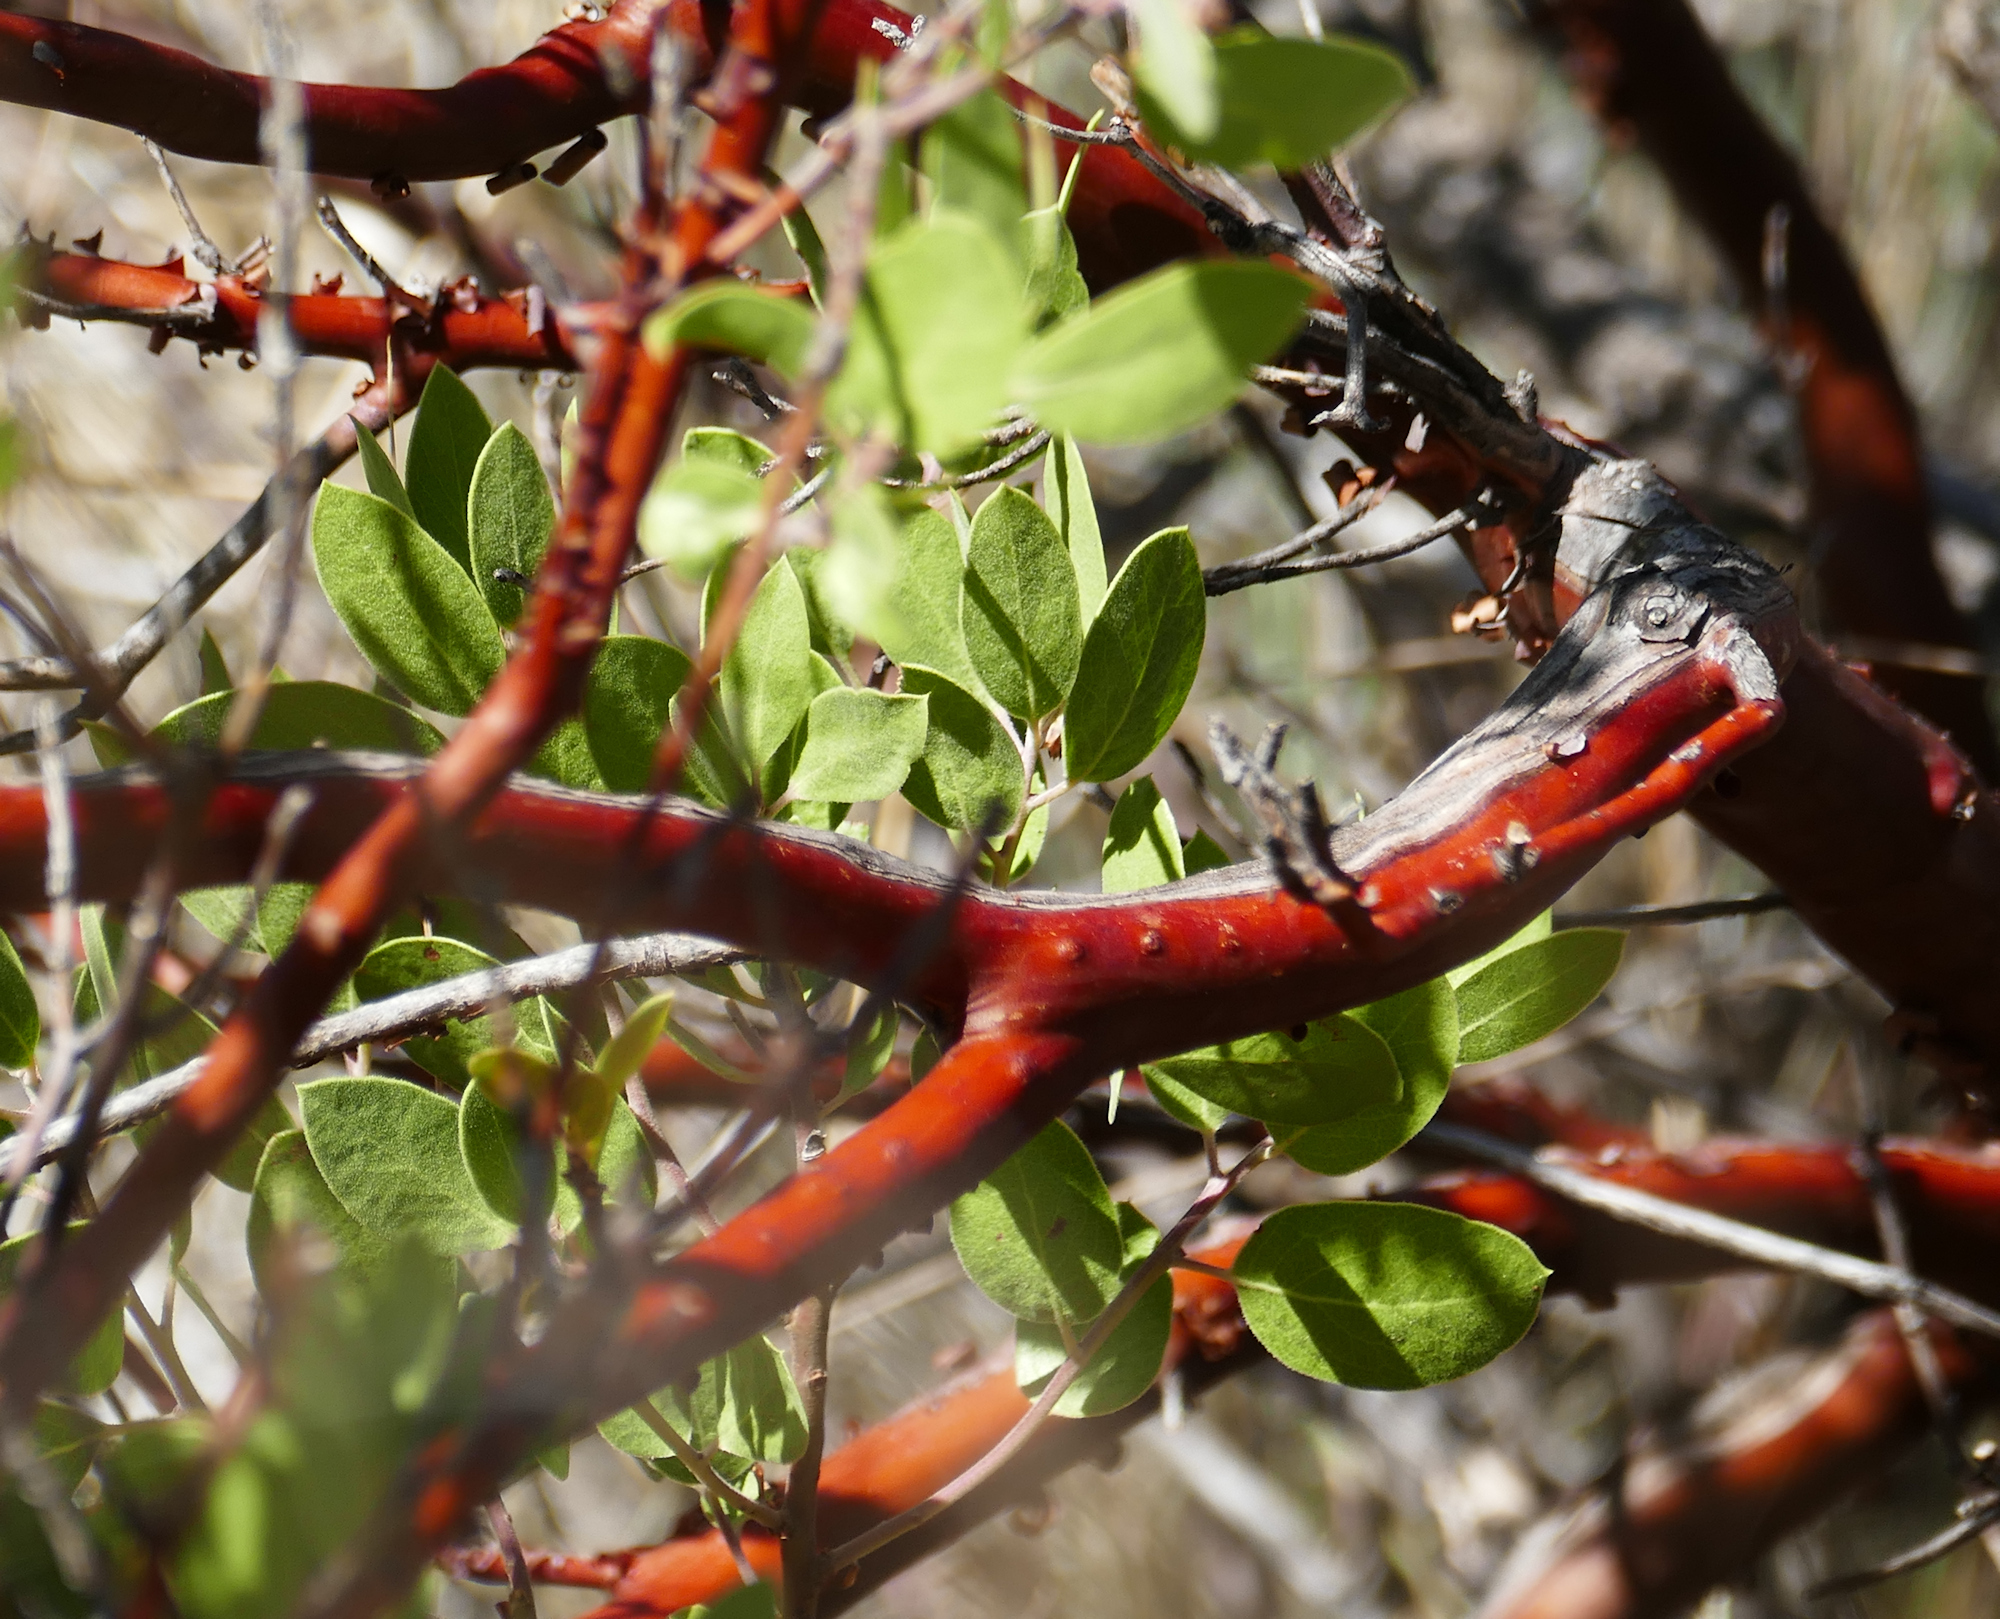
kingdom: Plantae
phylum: Tracheophyta
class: Magnoliopsida
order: Ericales
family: Ericaceae
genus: Arctostaphylos
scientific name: Arctostaphylos pungens
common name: Mexican manzanita
